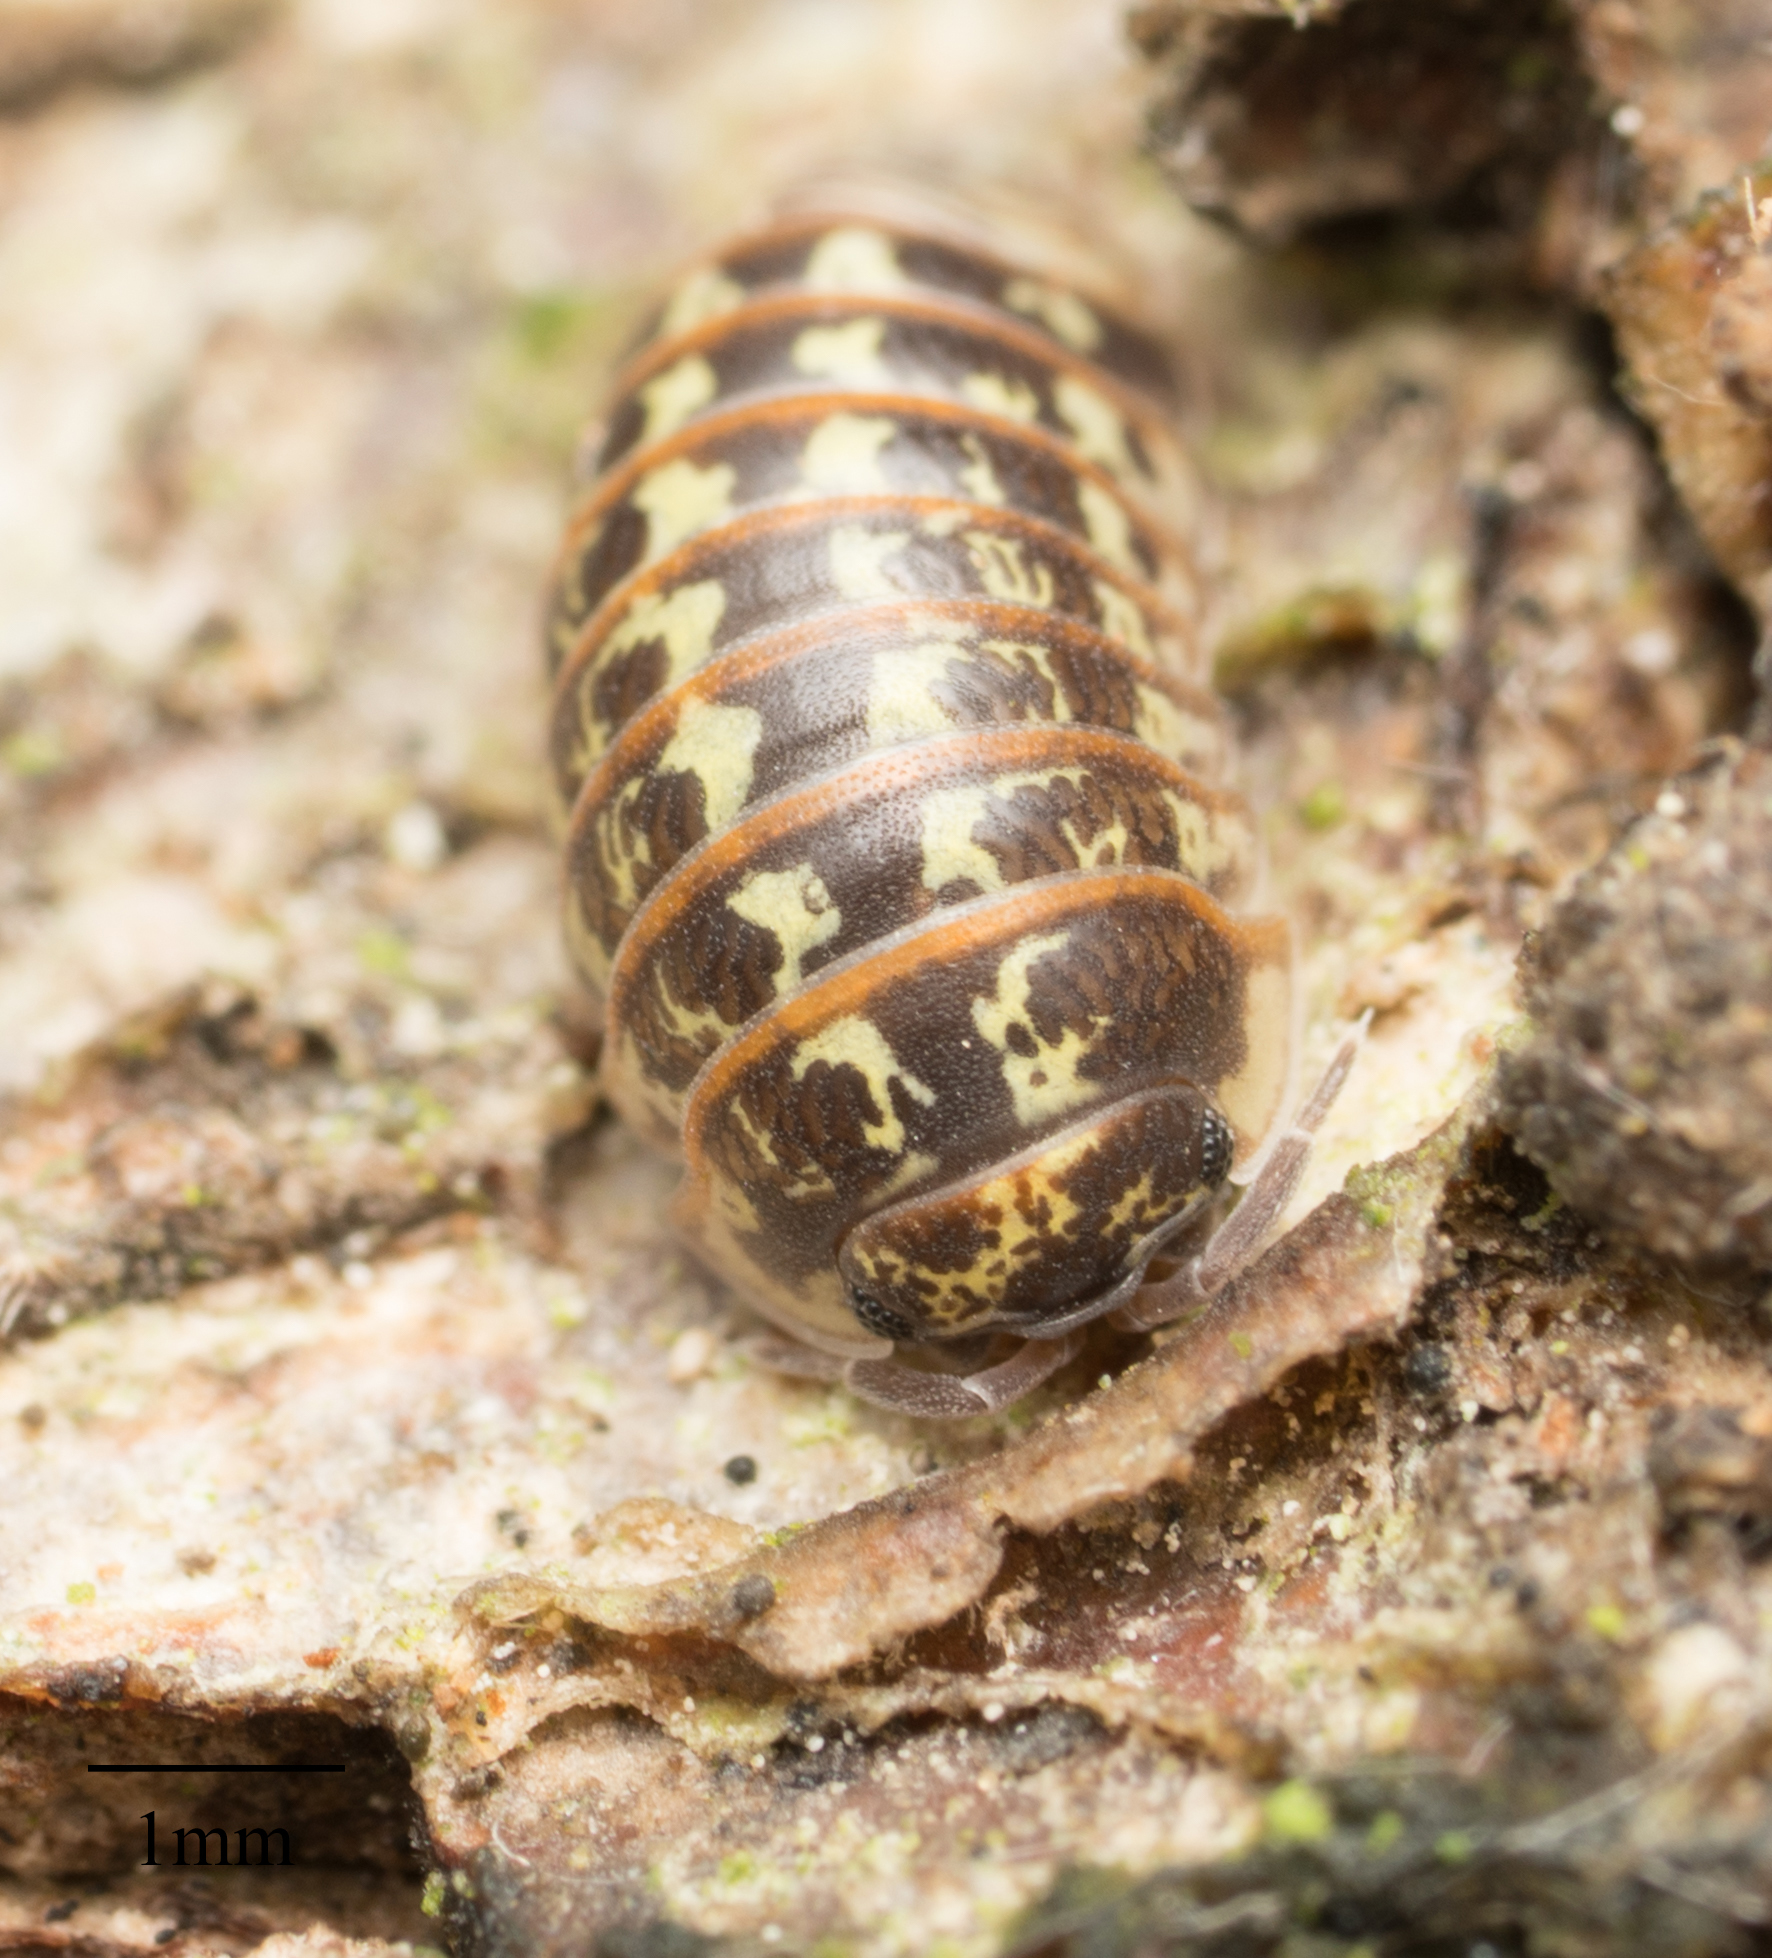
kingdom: Animalia
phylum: Arthropoda
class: Malacostraca
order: Isopoda
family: Armadillidiidae
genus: Armadillidium
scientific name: Armadillidium pictum
